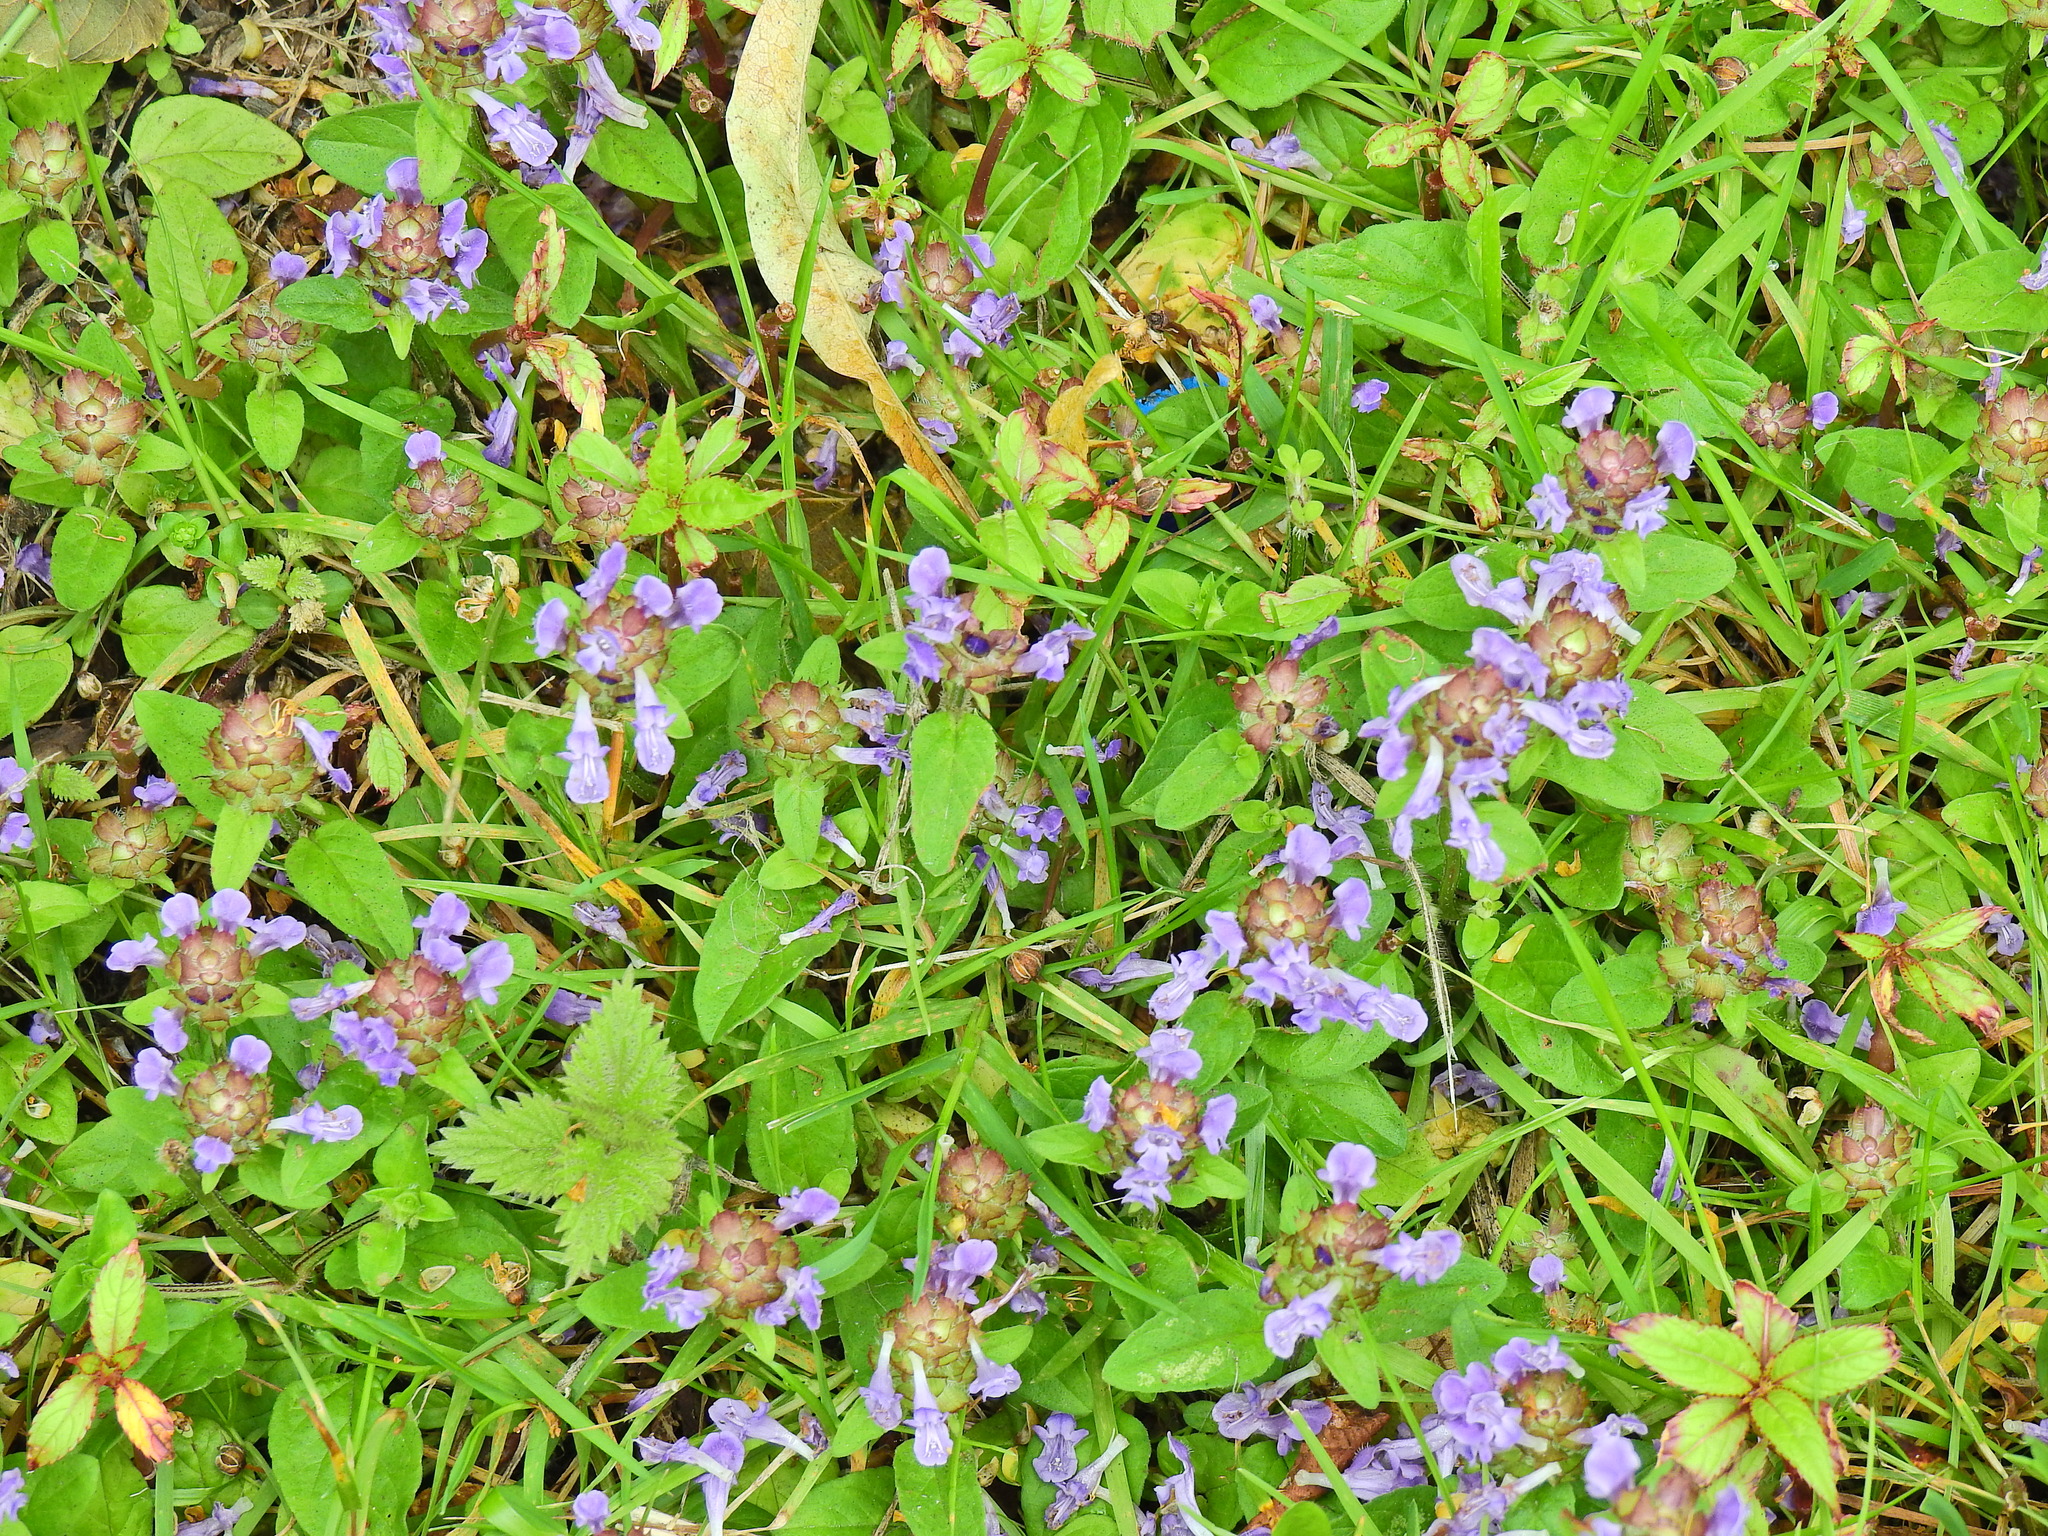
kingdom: Plantae
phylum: Tracheophyta
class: Magnoliopsida
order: Lamiales
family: Lamiaceae
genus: Prunella
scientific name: Prunella vulgaris
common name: Heal-all
